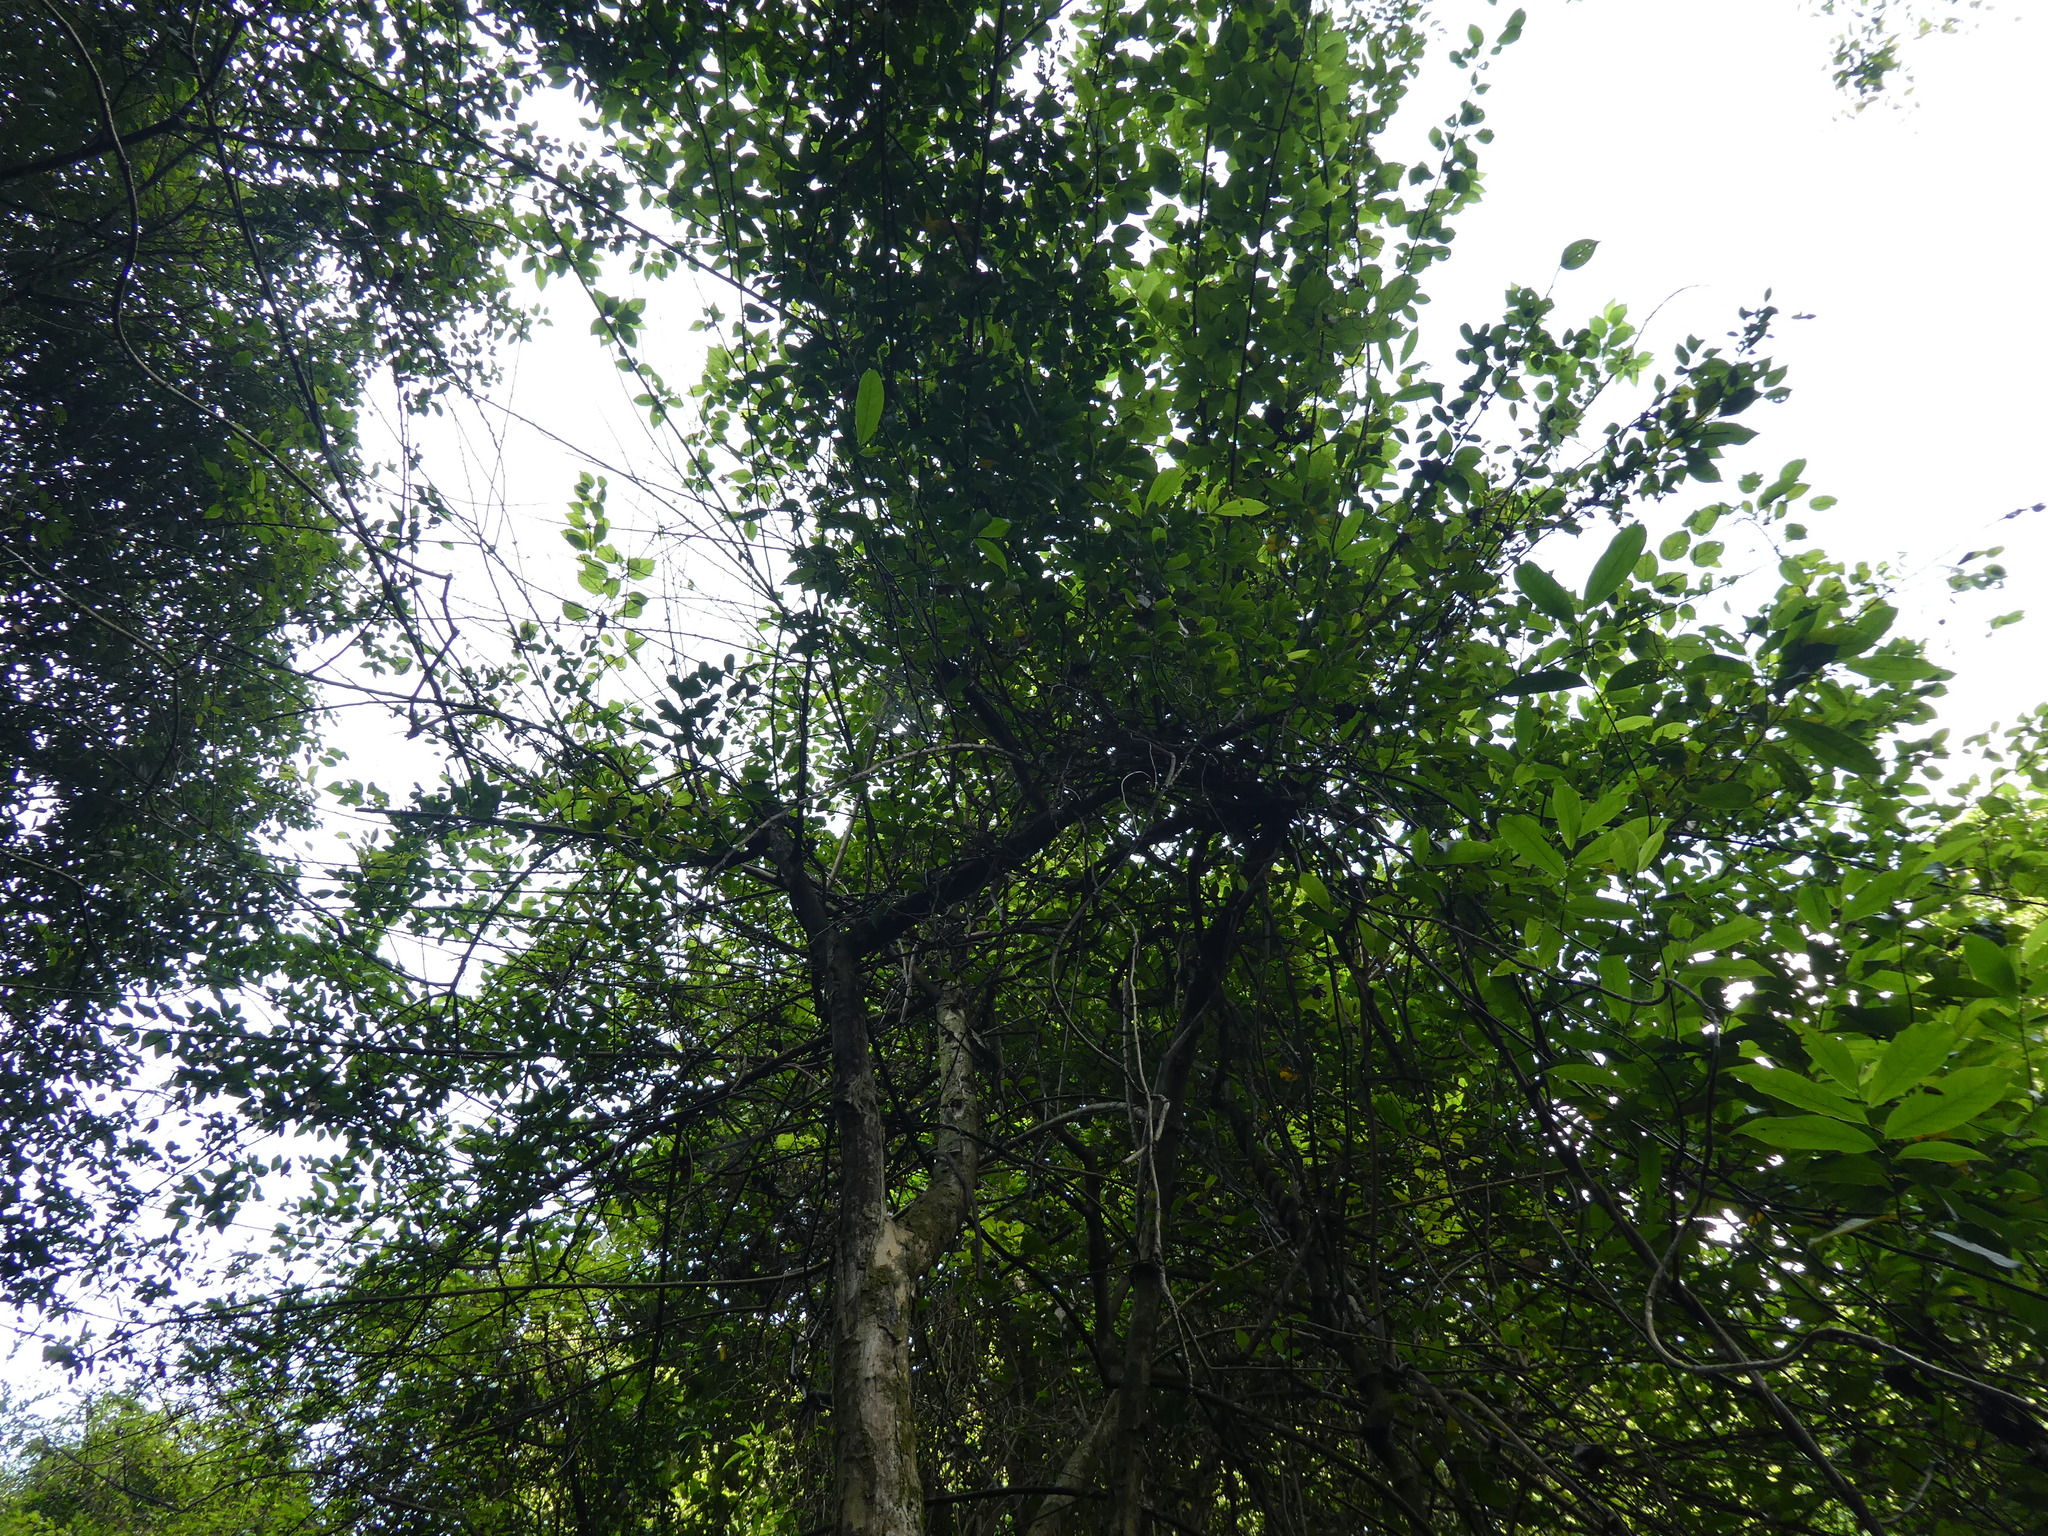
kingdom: Plantae
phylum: Tracheophyta
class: Magnoliopsida
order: Rosales
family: Moraceae
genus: Maclura
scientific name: Maclura cochinchinensis
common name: Cockspurthorn
